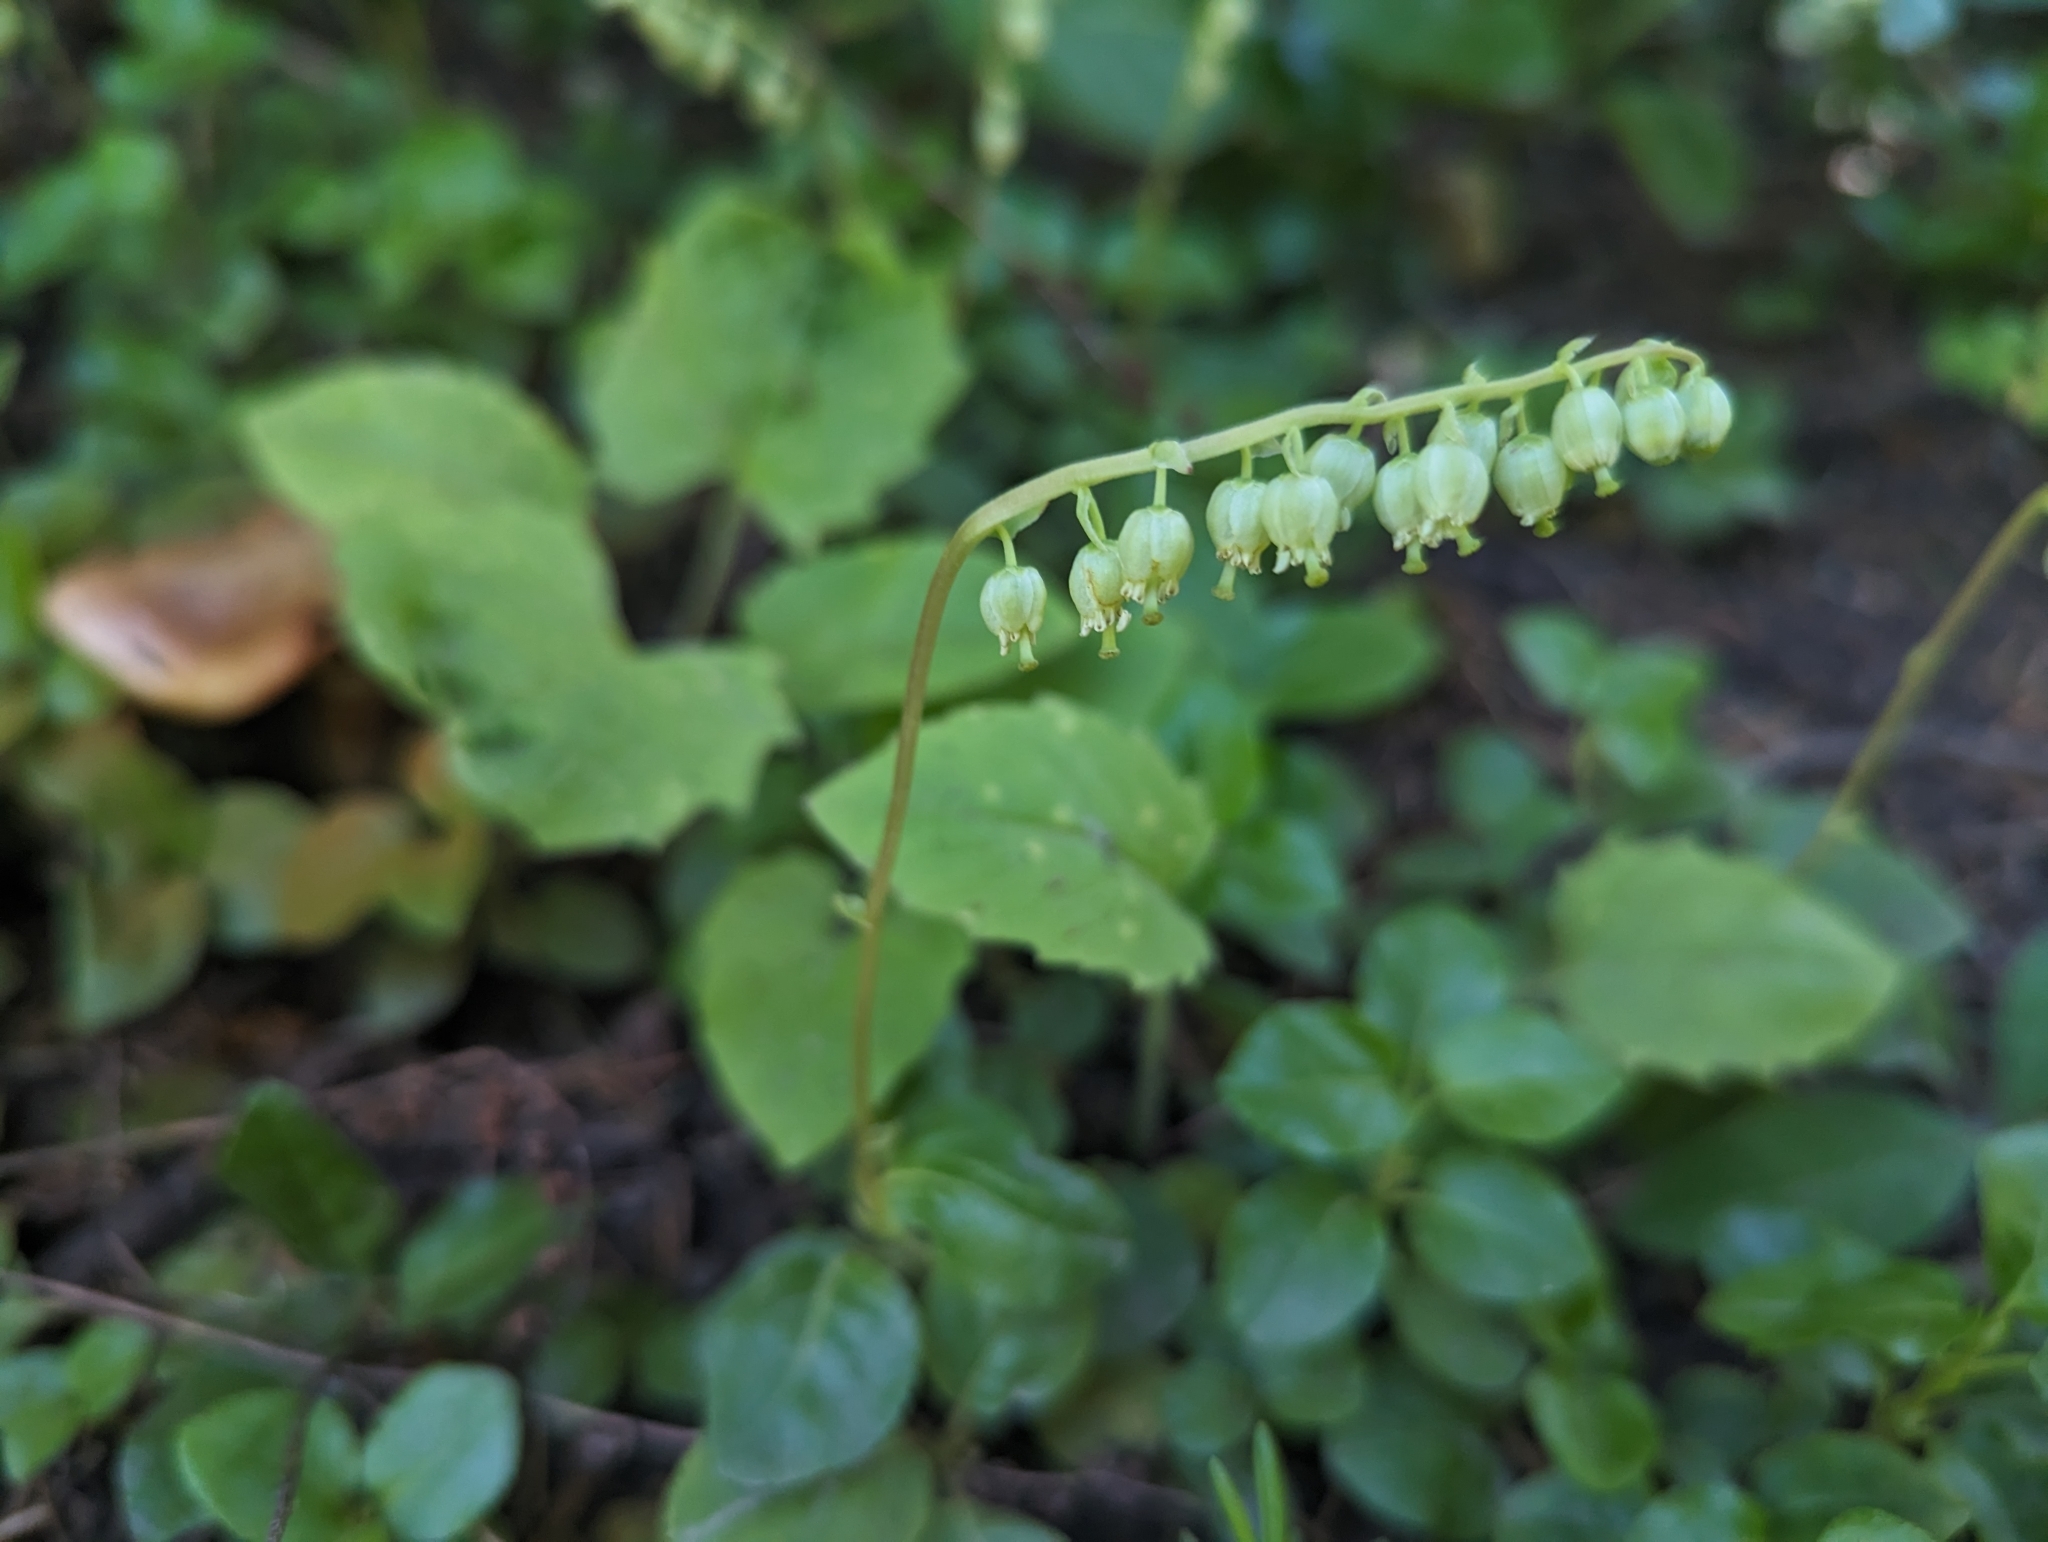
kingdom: Plantae
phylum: Tracheophyta
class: Magnoliopsida
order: Ericales
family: Ericaceae
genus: Orthilia
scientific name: Orthilia secunda
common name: One-sided orthilia
